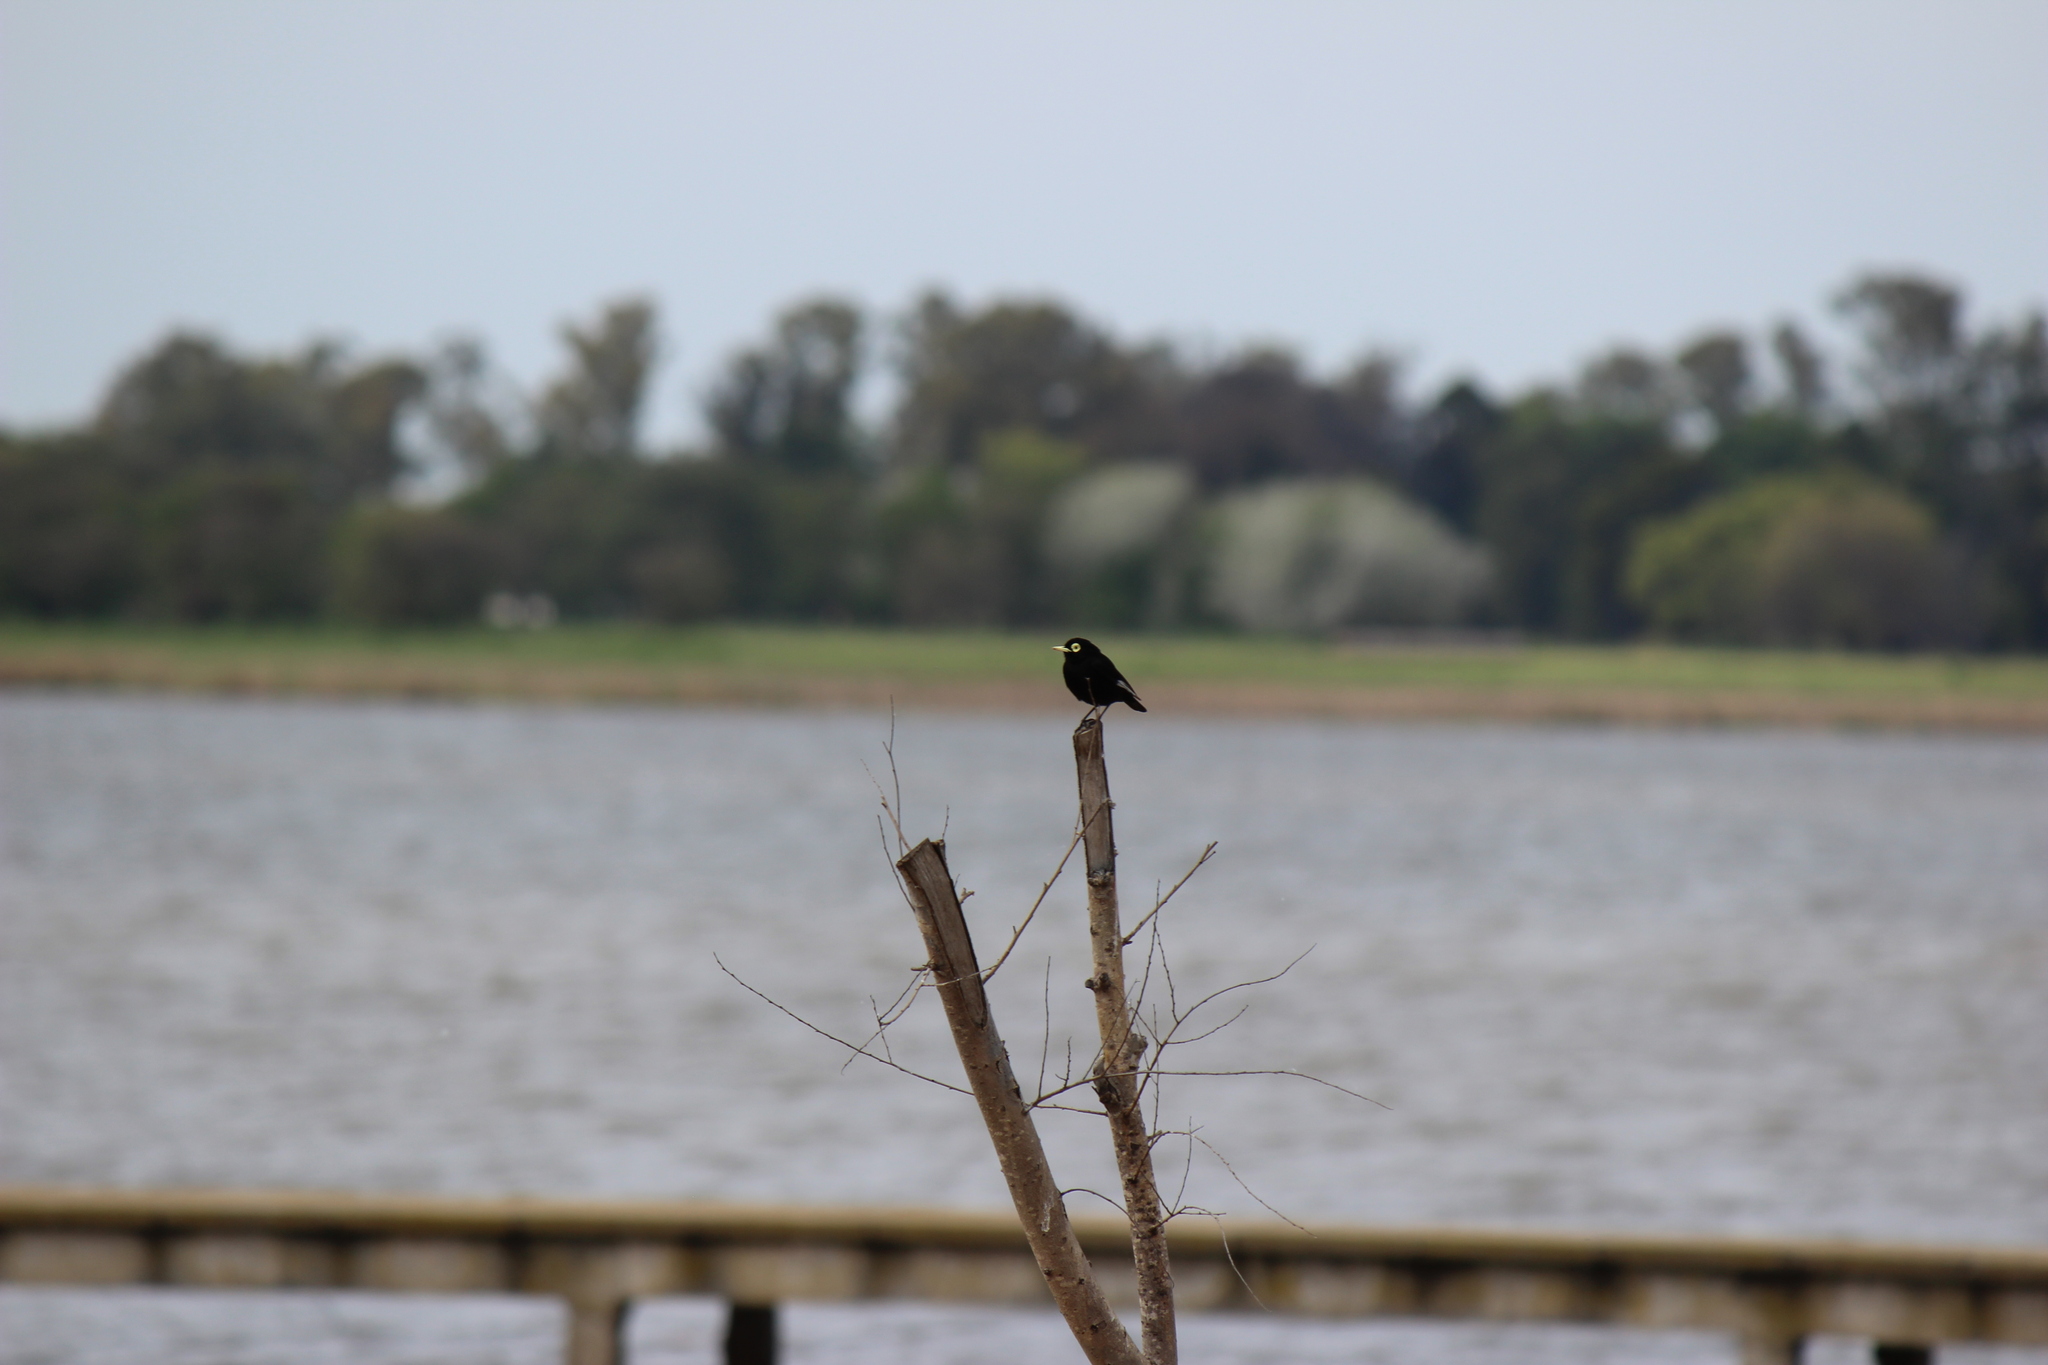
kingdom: Animalia
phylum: Chordata
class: Aves
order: Passeriformes
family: Tyrannidae
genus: Hymenops
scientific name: Hymenops perspicillatus
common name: Spectacled tyrant
